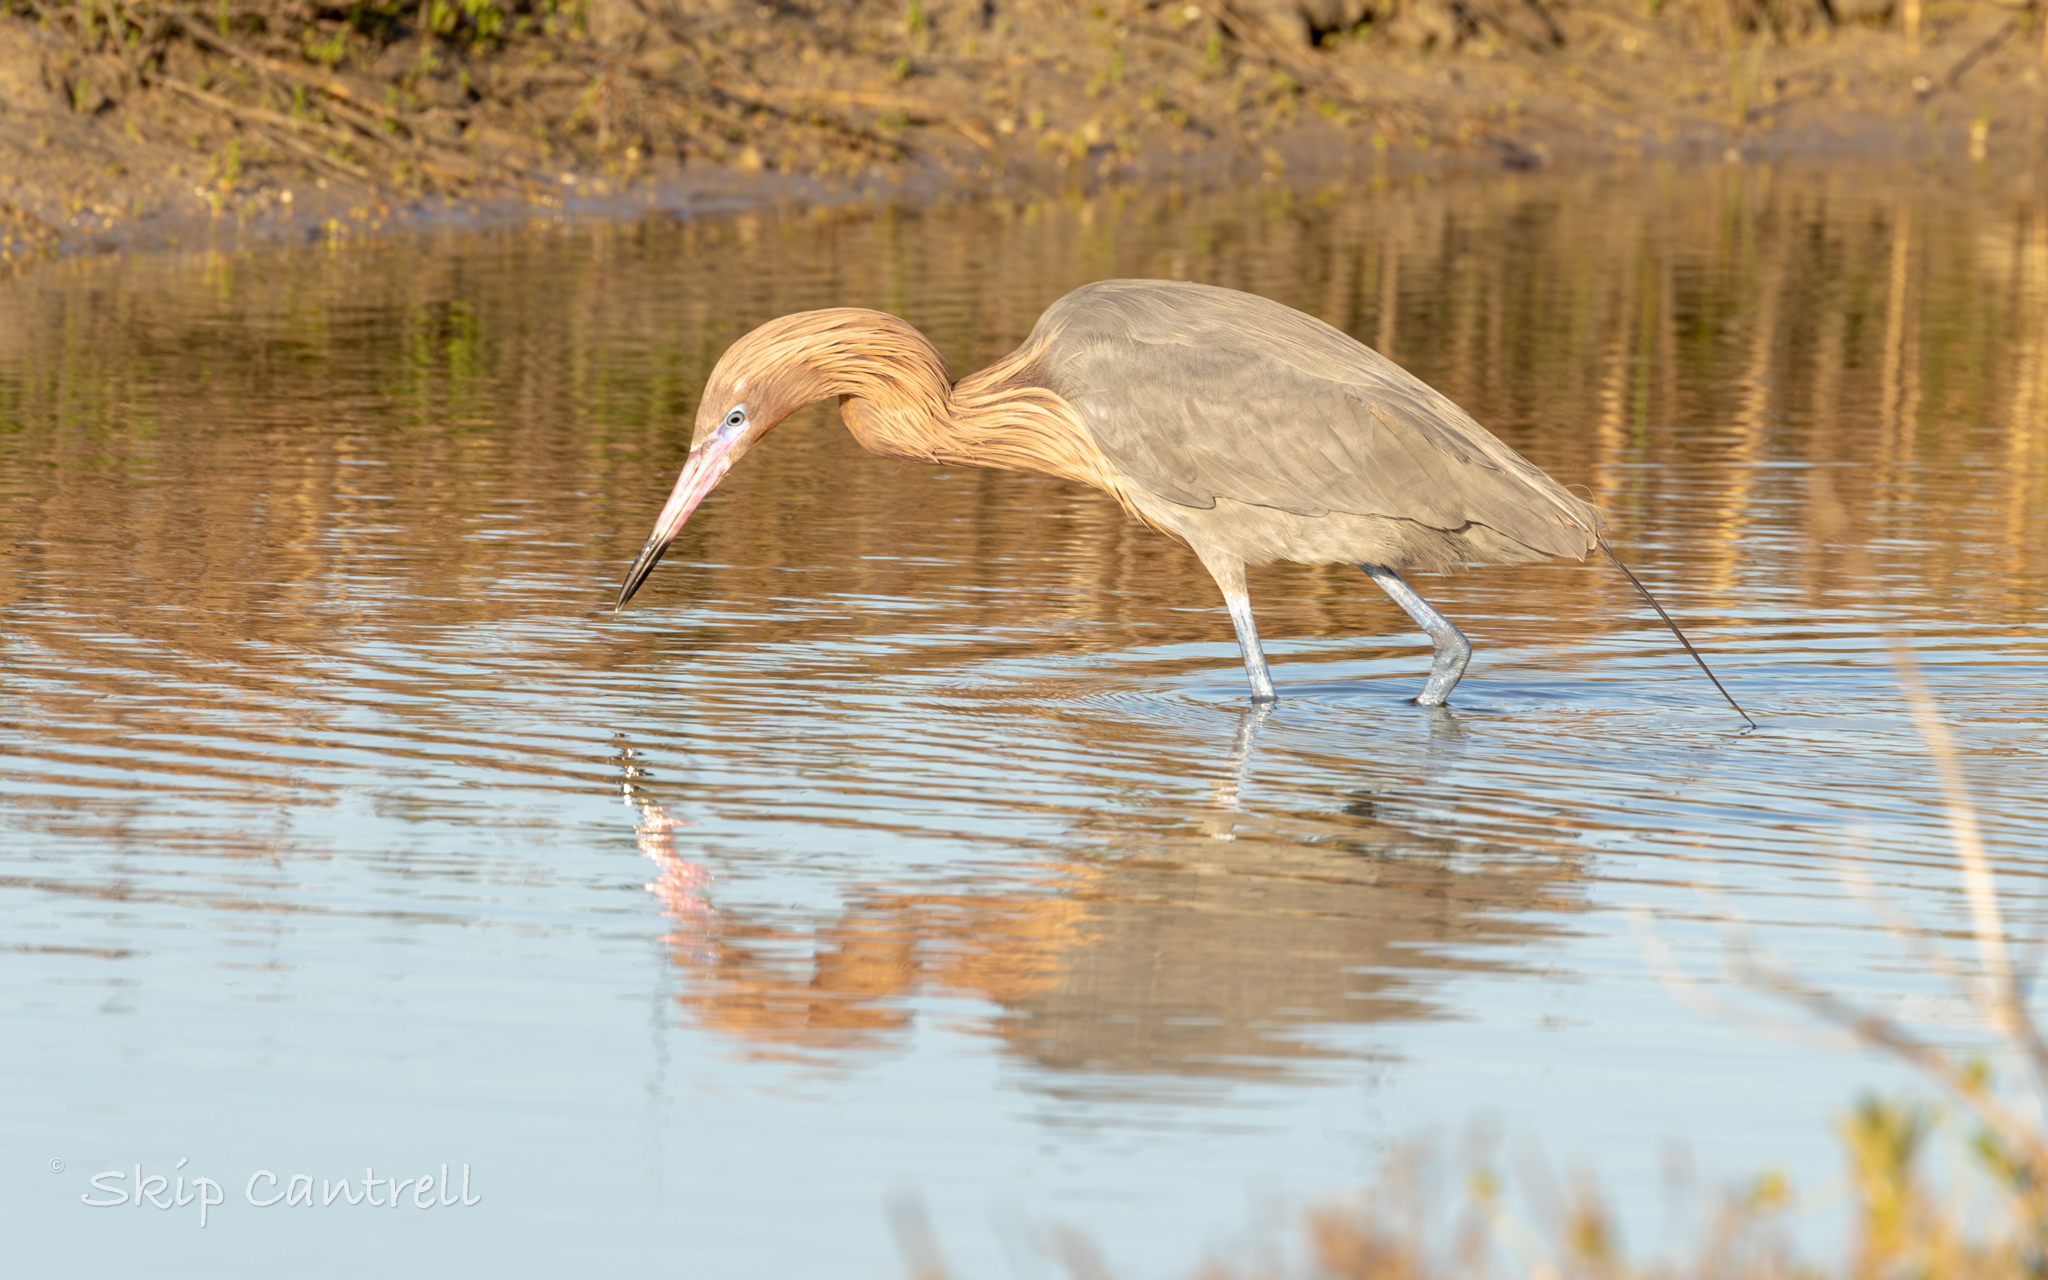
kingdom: Animalia
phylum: Chordata
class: Aves
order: Pelecaniformes
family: Ardeidae
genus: Egretta
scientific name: Egretta rufescens
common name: Reddish egret
